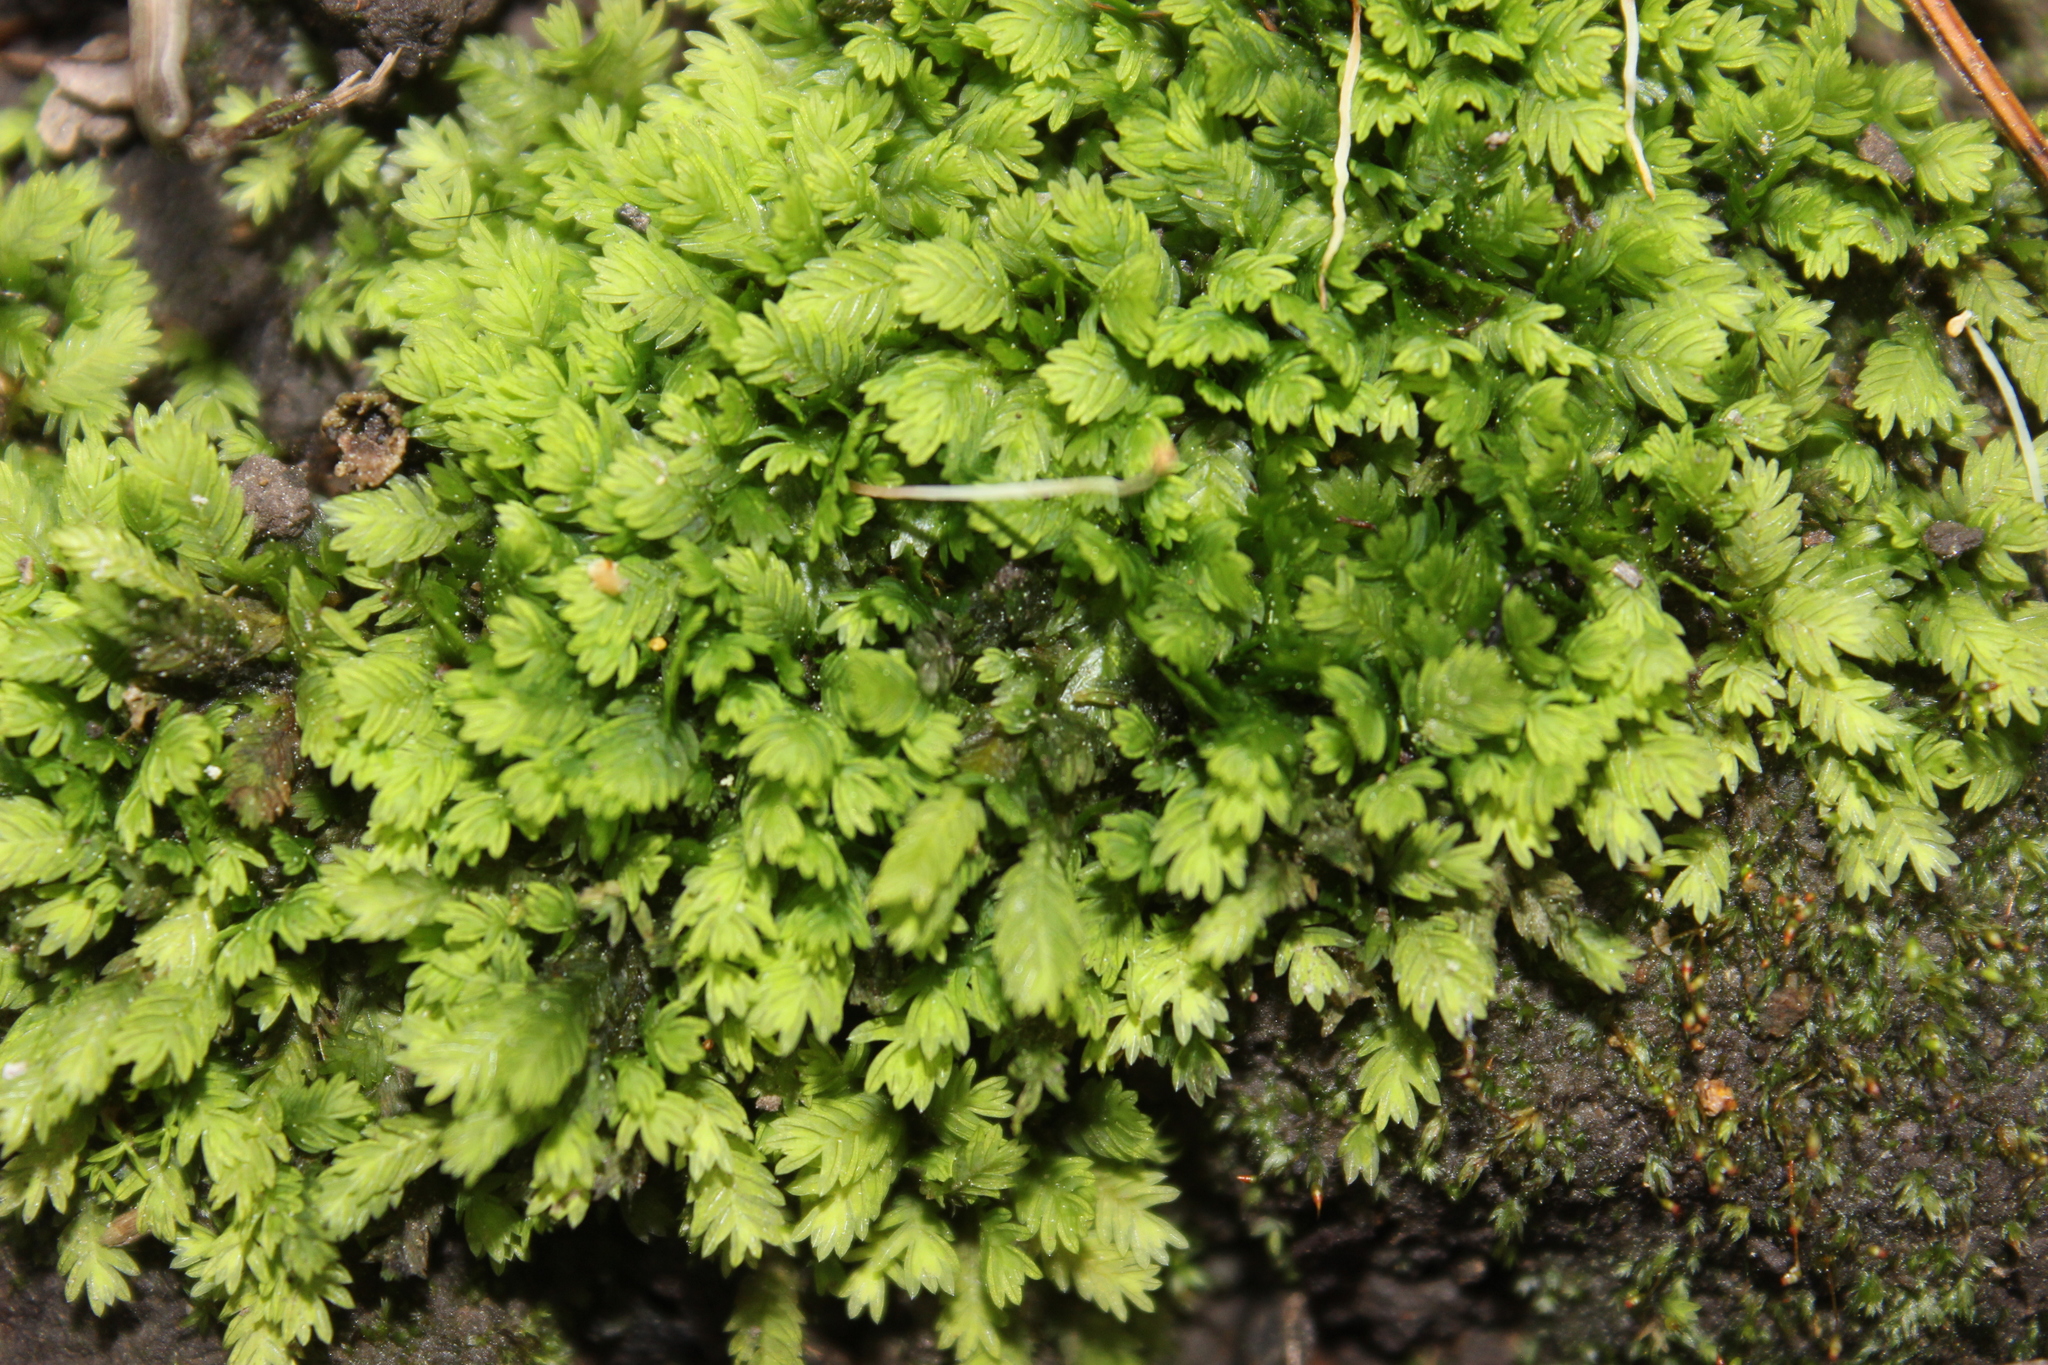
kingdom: Plantae
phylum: Bryophyta
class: Bryopsida
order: Dicranales
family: Fissidentaceae
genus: Fissidens
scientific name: Fissidens taxifolius
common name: Yew-leaved pocket moss
